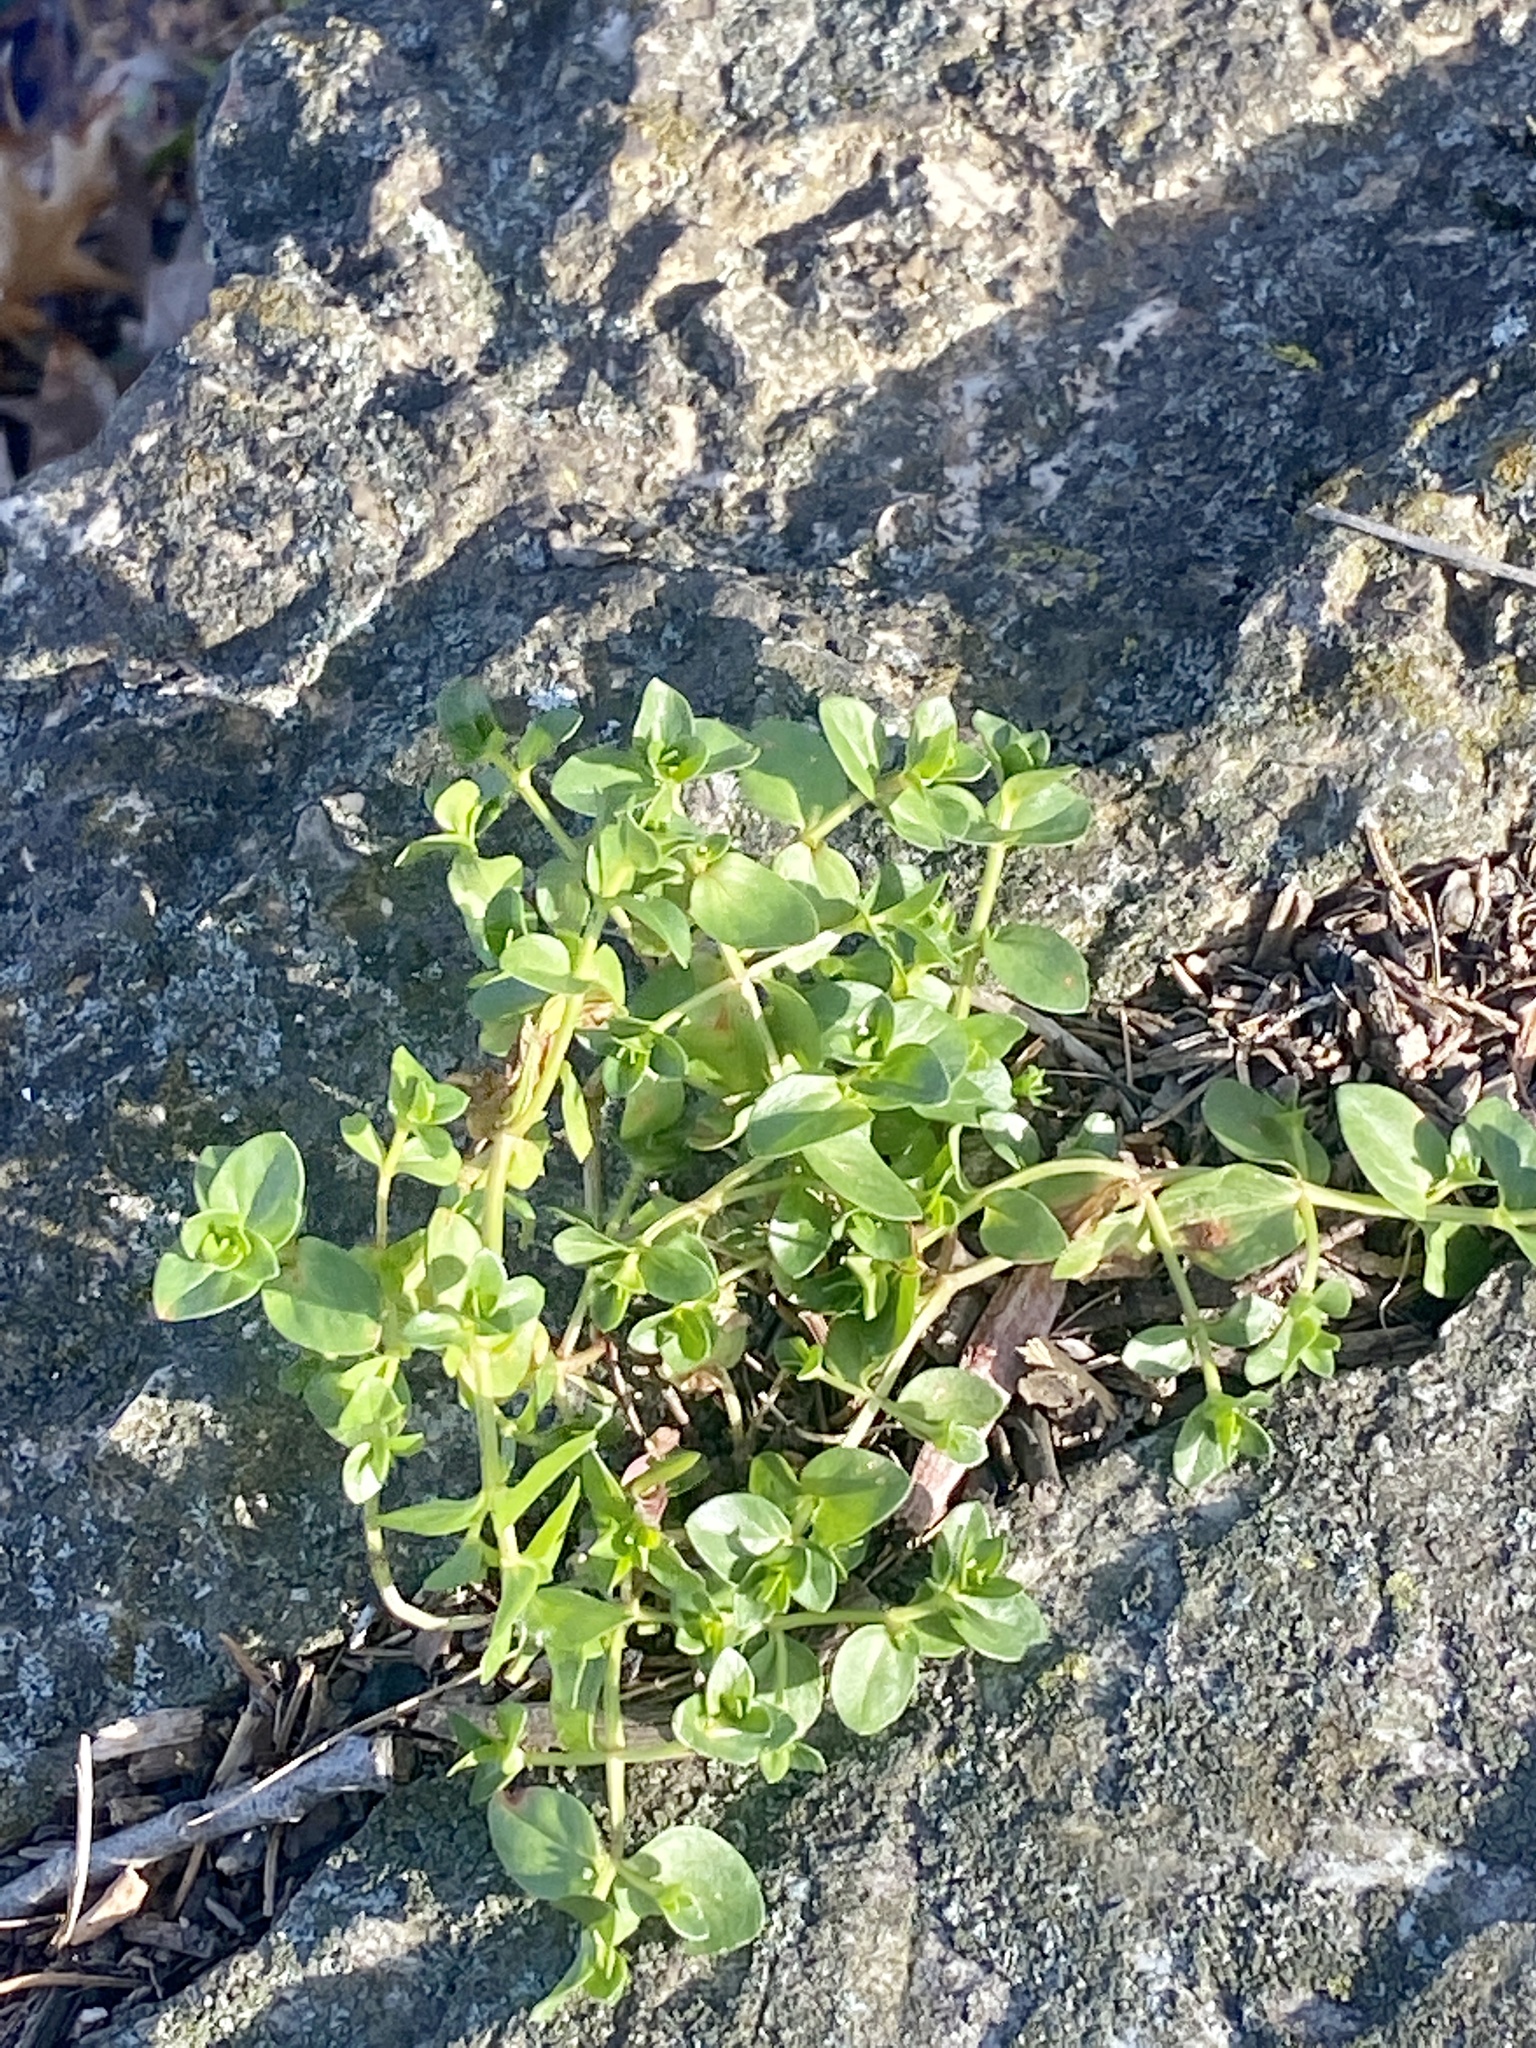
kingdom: Plantae
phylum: Tracheophyta
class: Magnoliopsida
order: Ericales
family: Primulaceae
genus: Lysimachia
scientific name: Lysimachia arvensis
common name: Scarlet pimpernel
